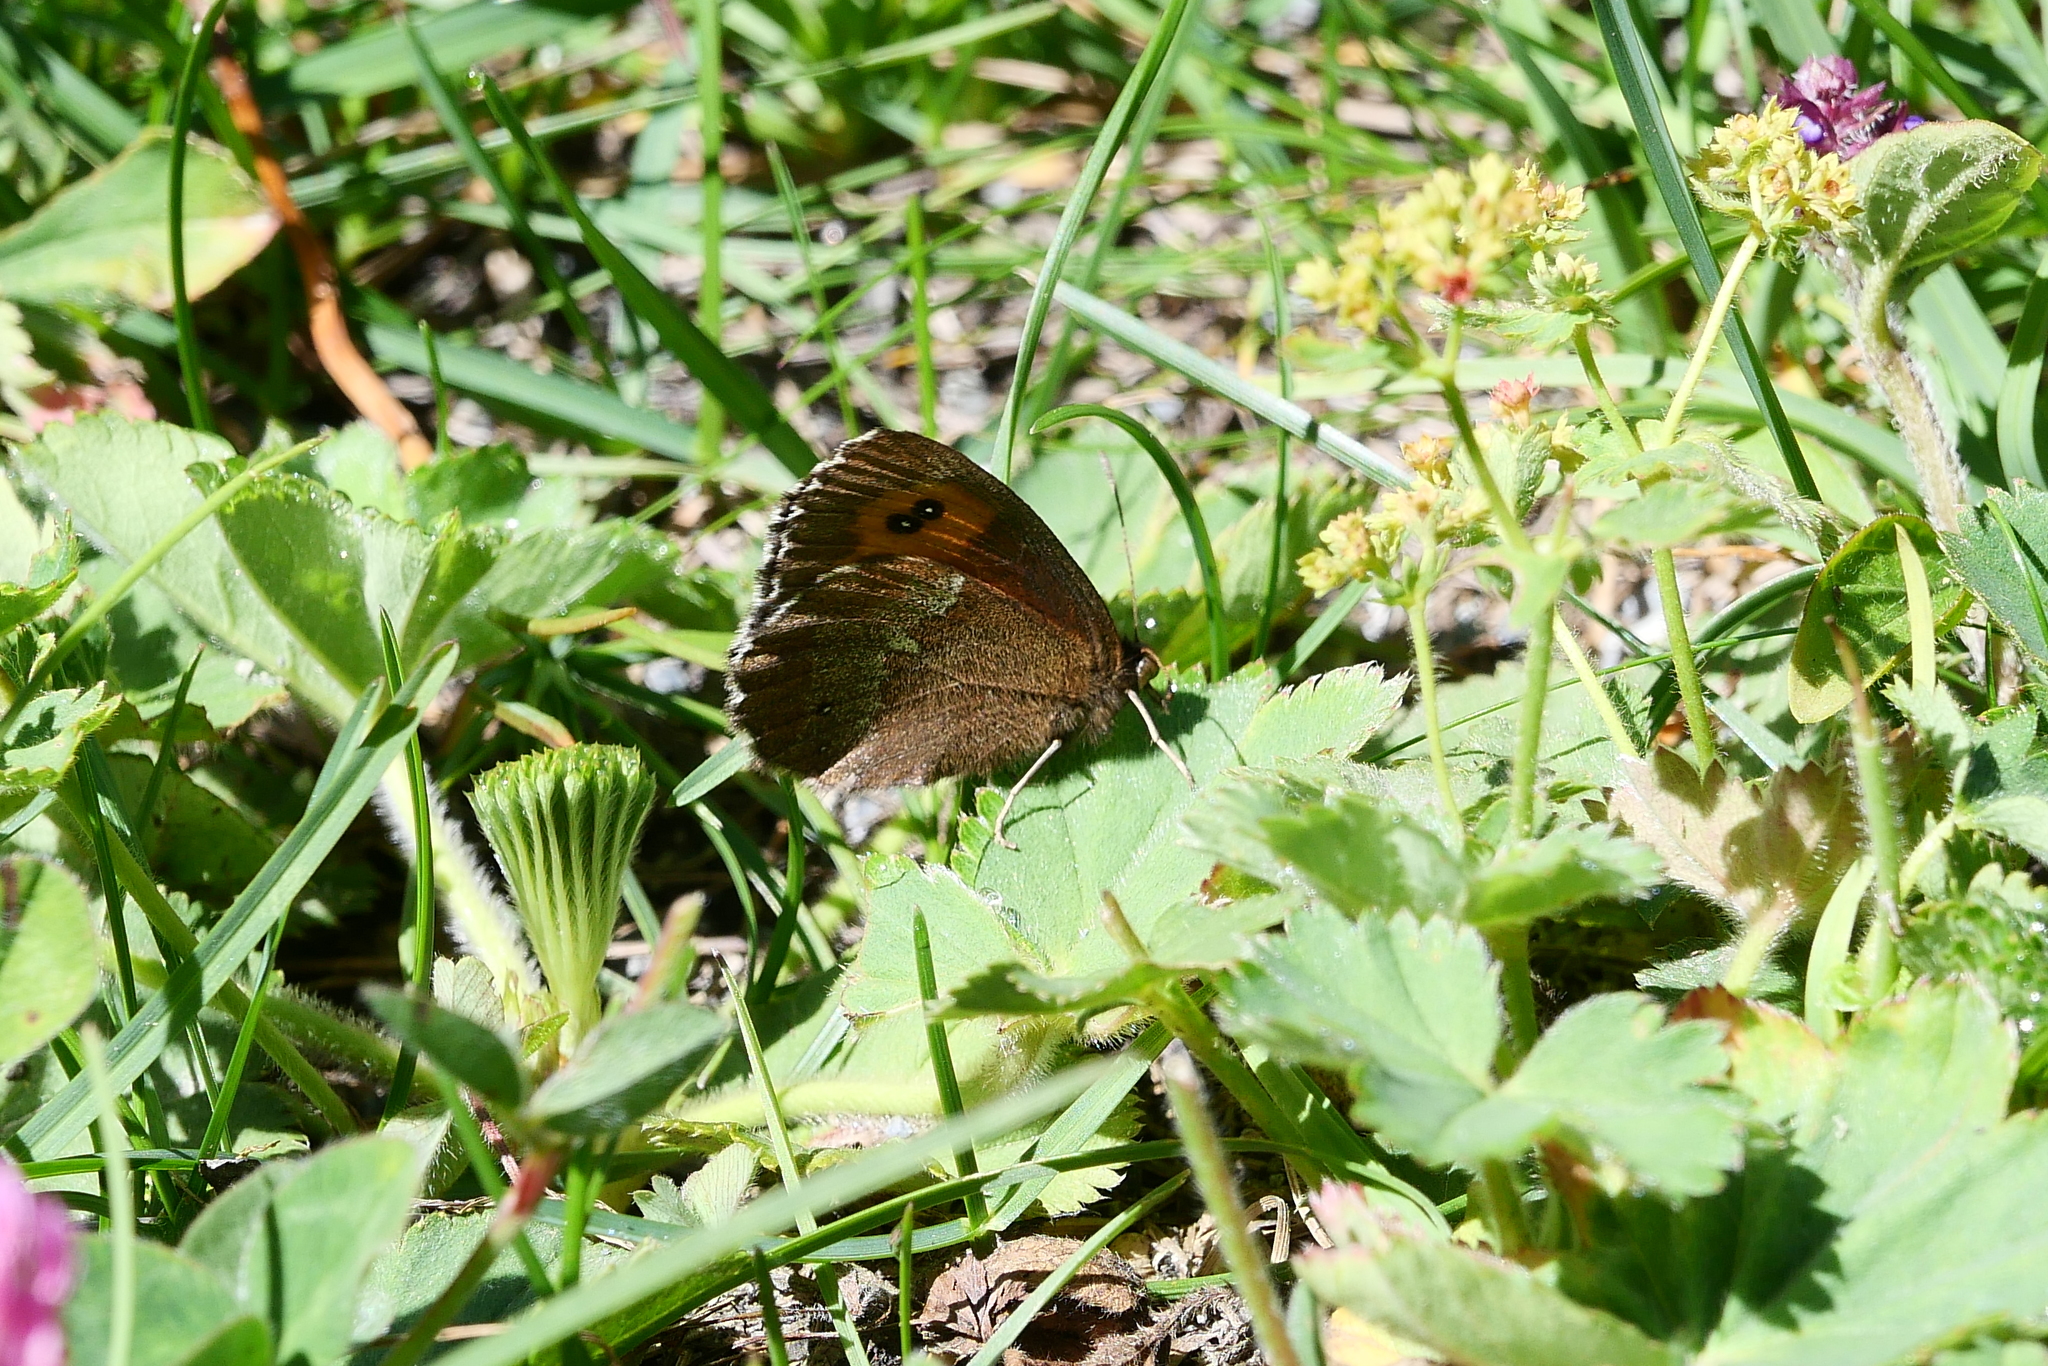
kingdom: Animalia
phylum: Arthropoda
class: Insecta
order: Lepidoptera
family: Nymphalidae
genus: Erebia
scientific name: Erebia euryale
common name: Large ringlet
